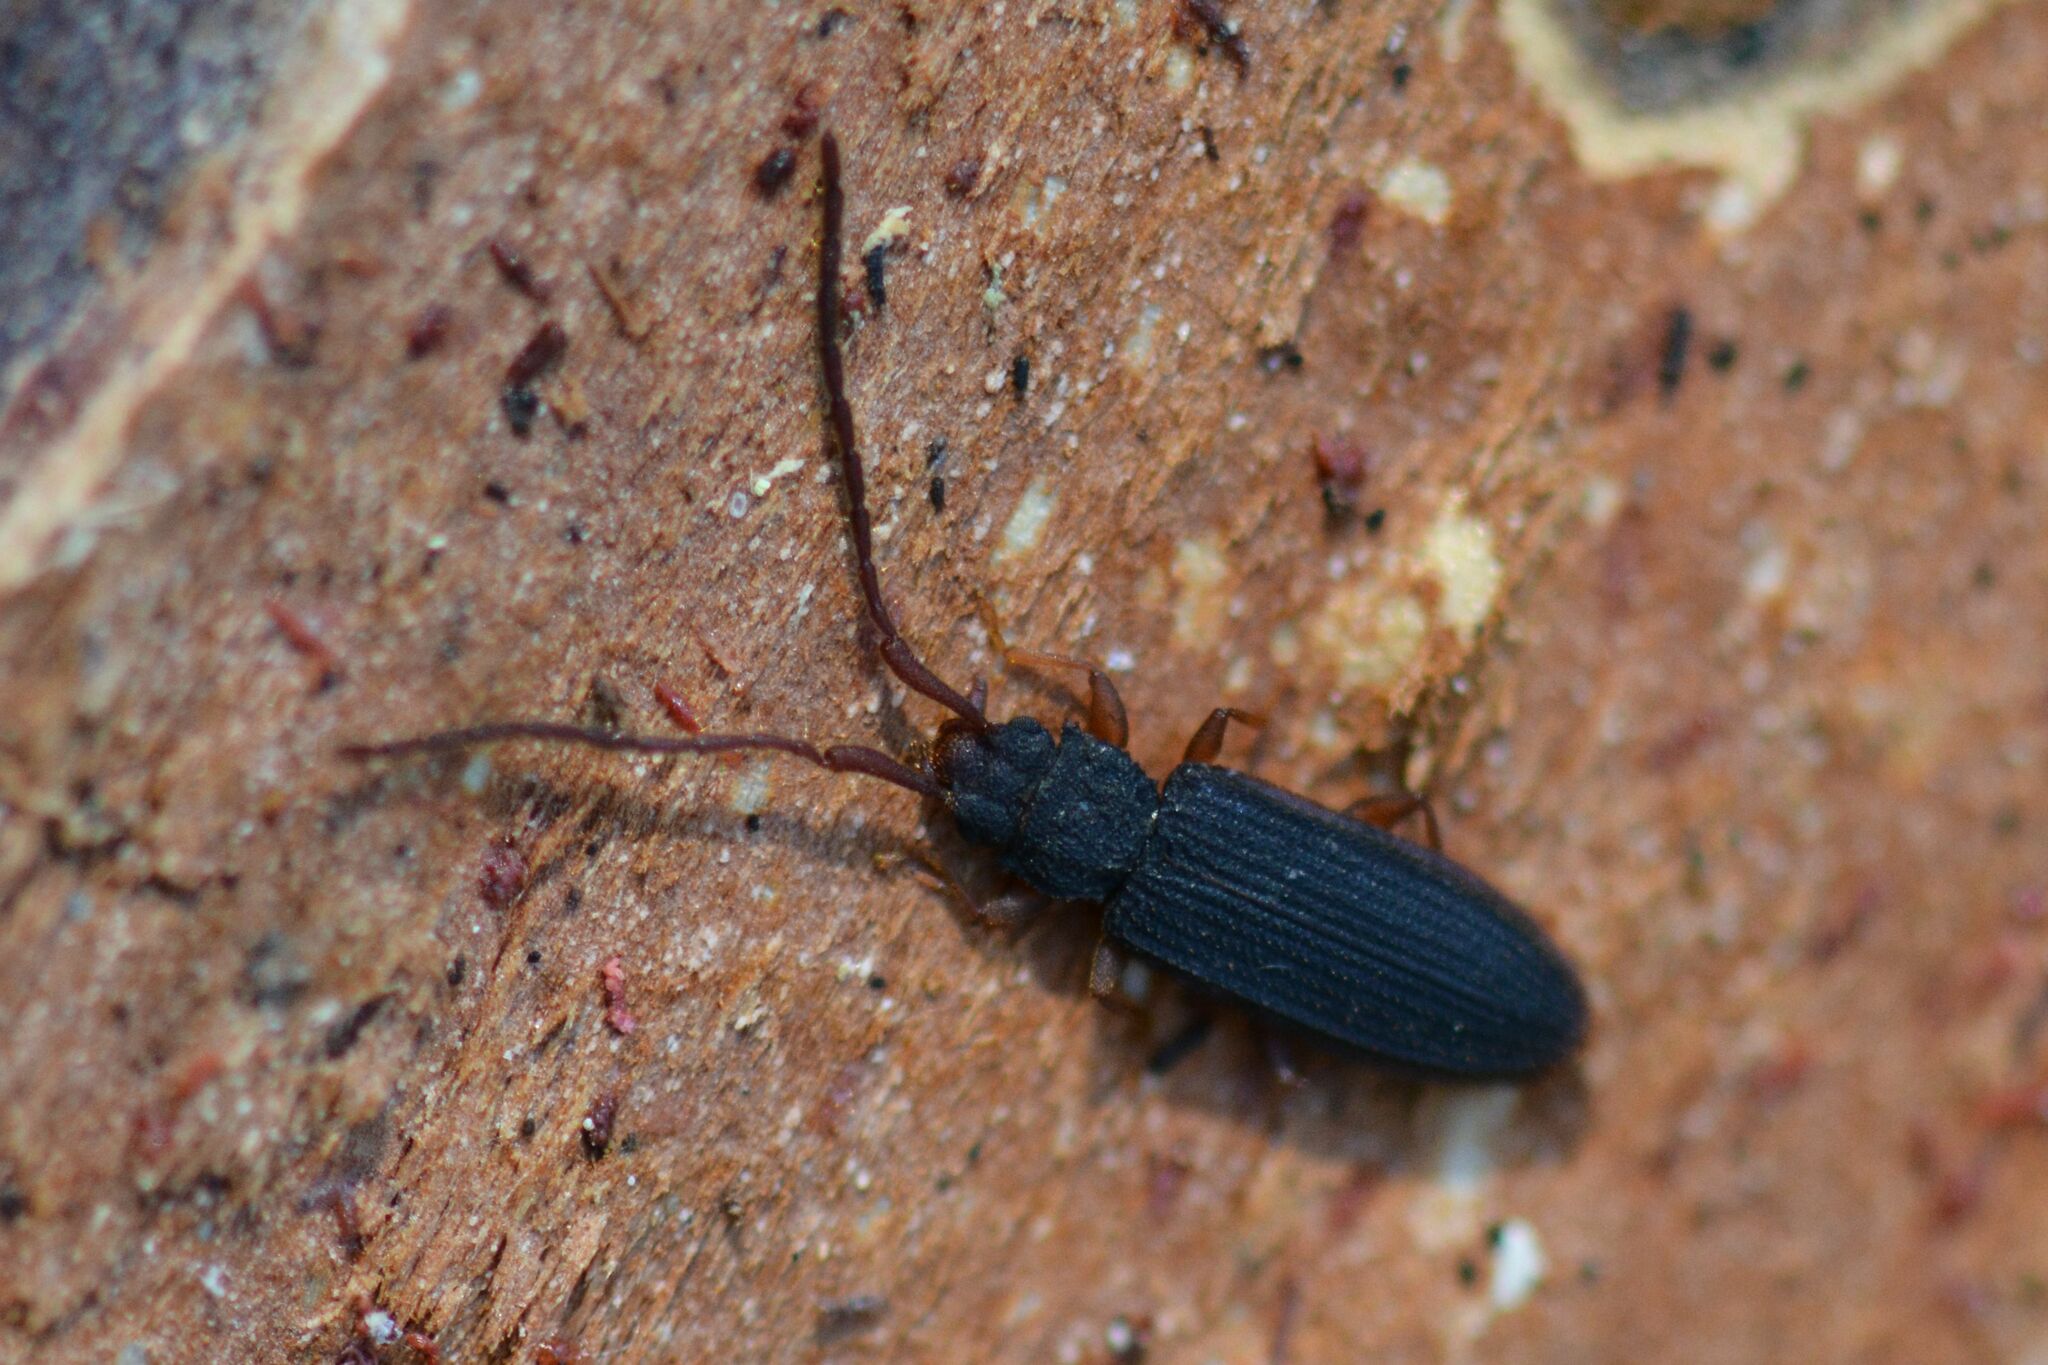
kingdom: Animalia
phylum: Arthropoda
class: Insecta
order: Coleoptera
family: Silvanidae
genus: Uleiota
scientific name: Uleiota planatus
